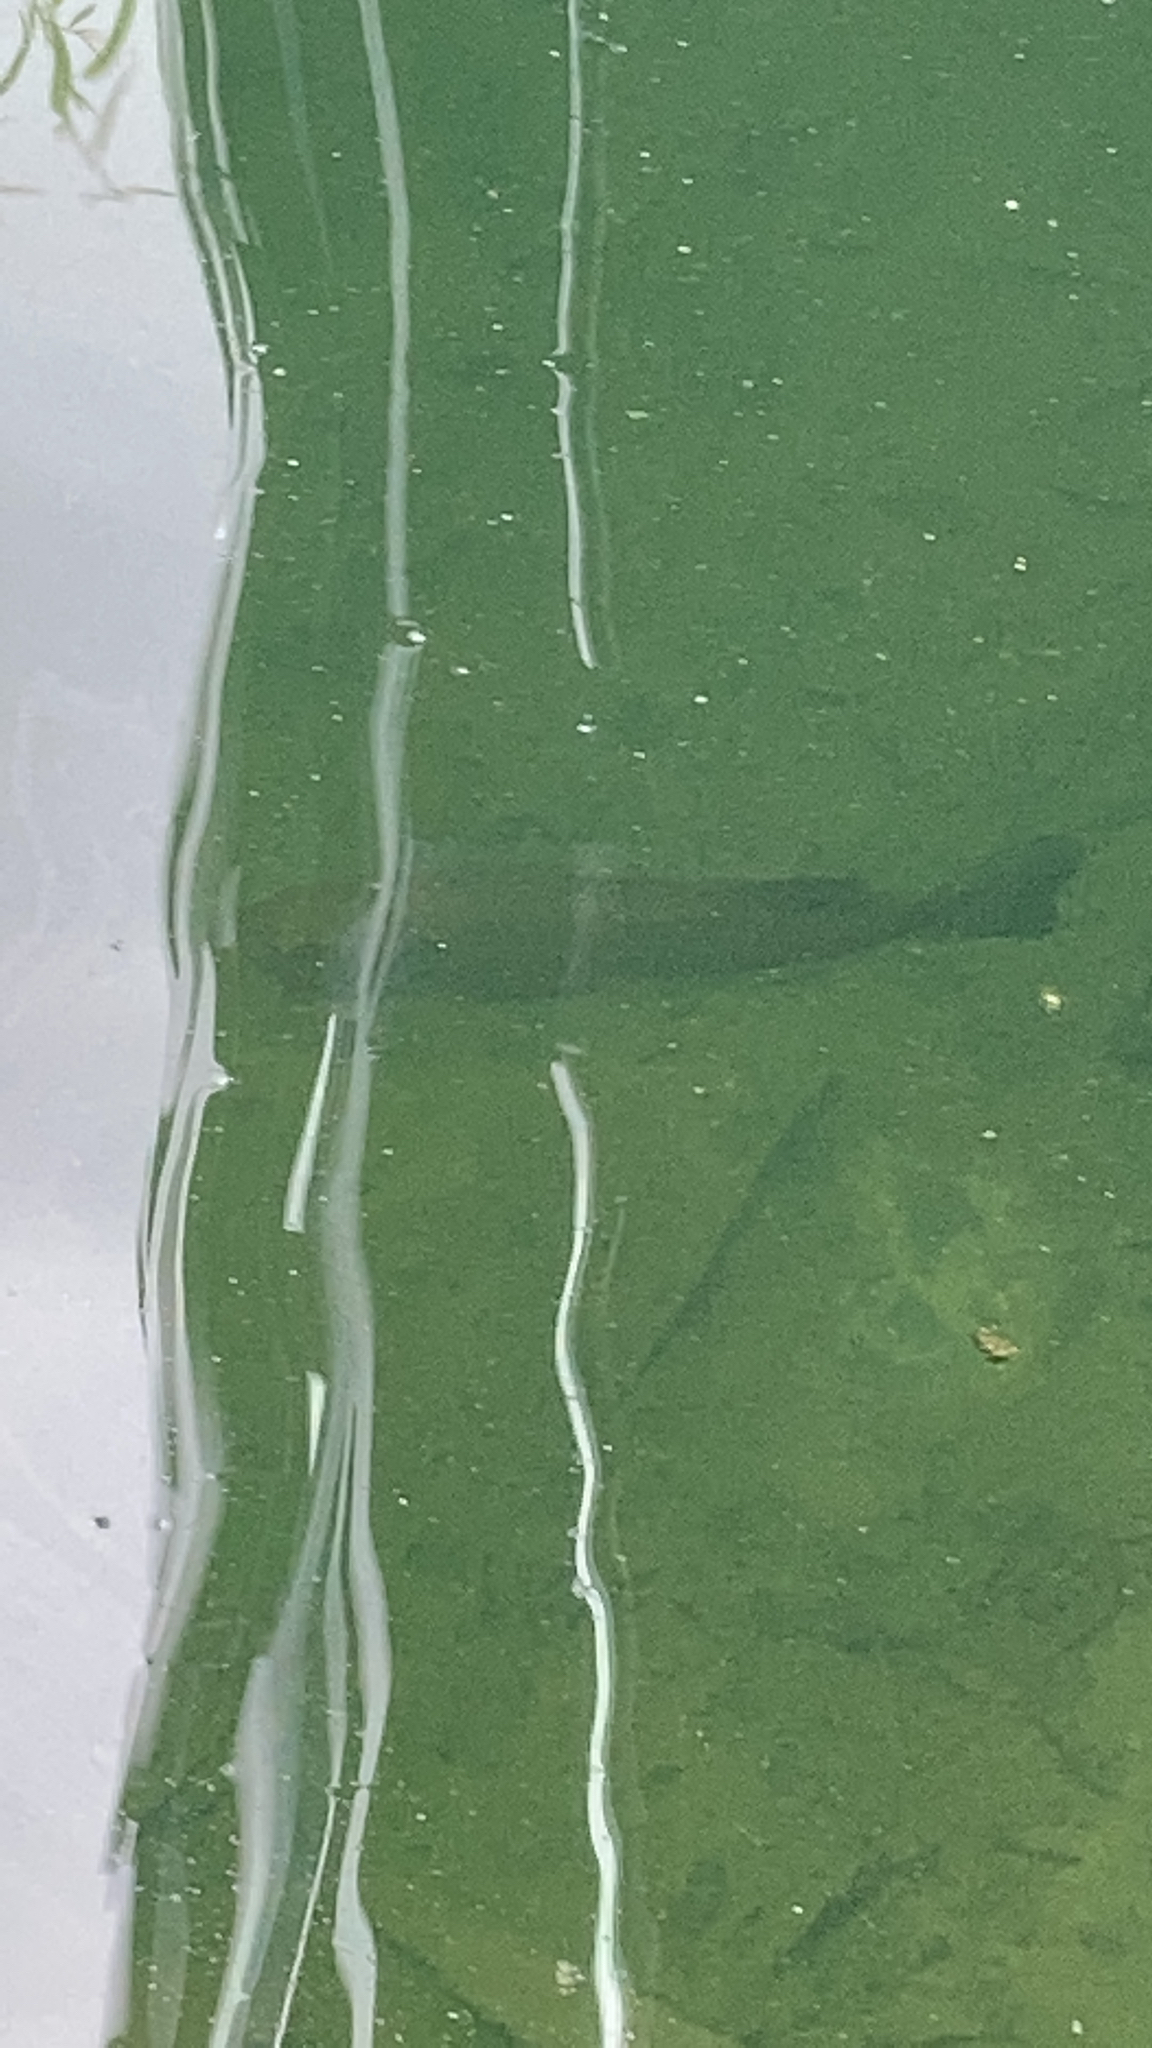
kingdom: Animalia
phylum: Chordata
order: Perciformes
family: Centrarchidae
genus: Micropterus
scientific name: Micropterus
